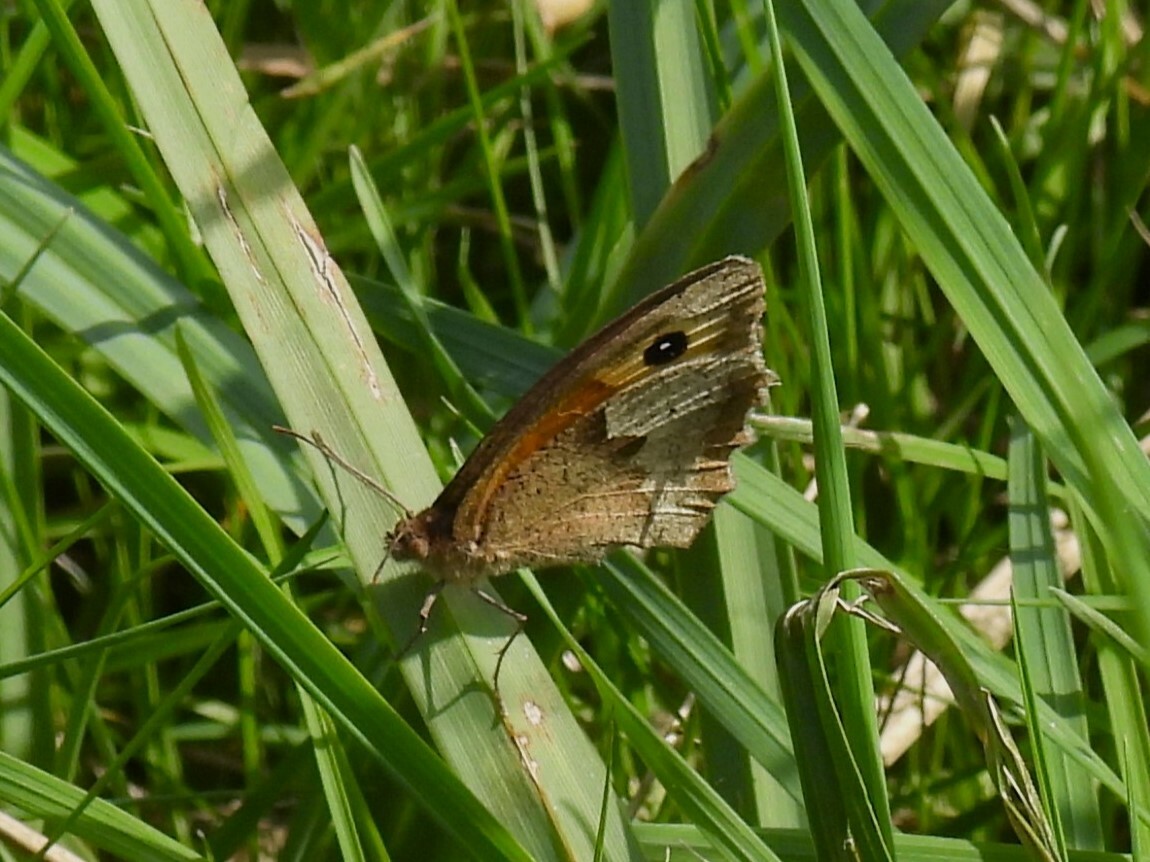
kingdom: Animalia
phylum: Arthropoda
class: Insecta
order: Lepidoptera
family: Nymphalidae
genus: Maniola
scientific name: Maniola jurtina
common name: Meadow brown
